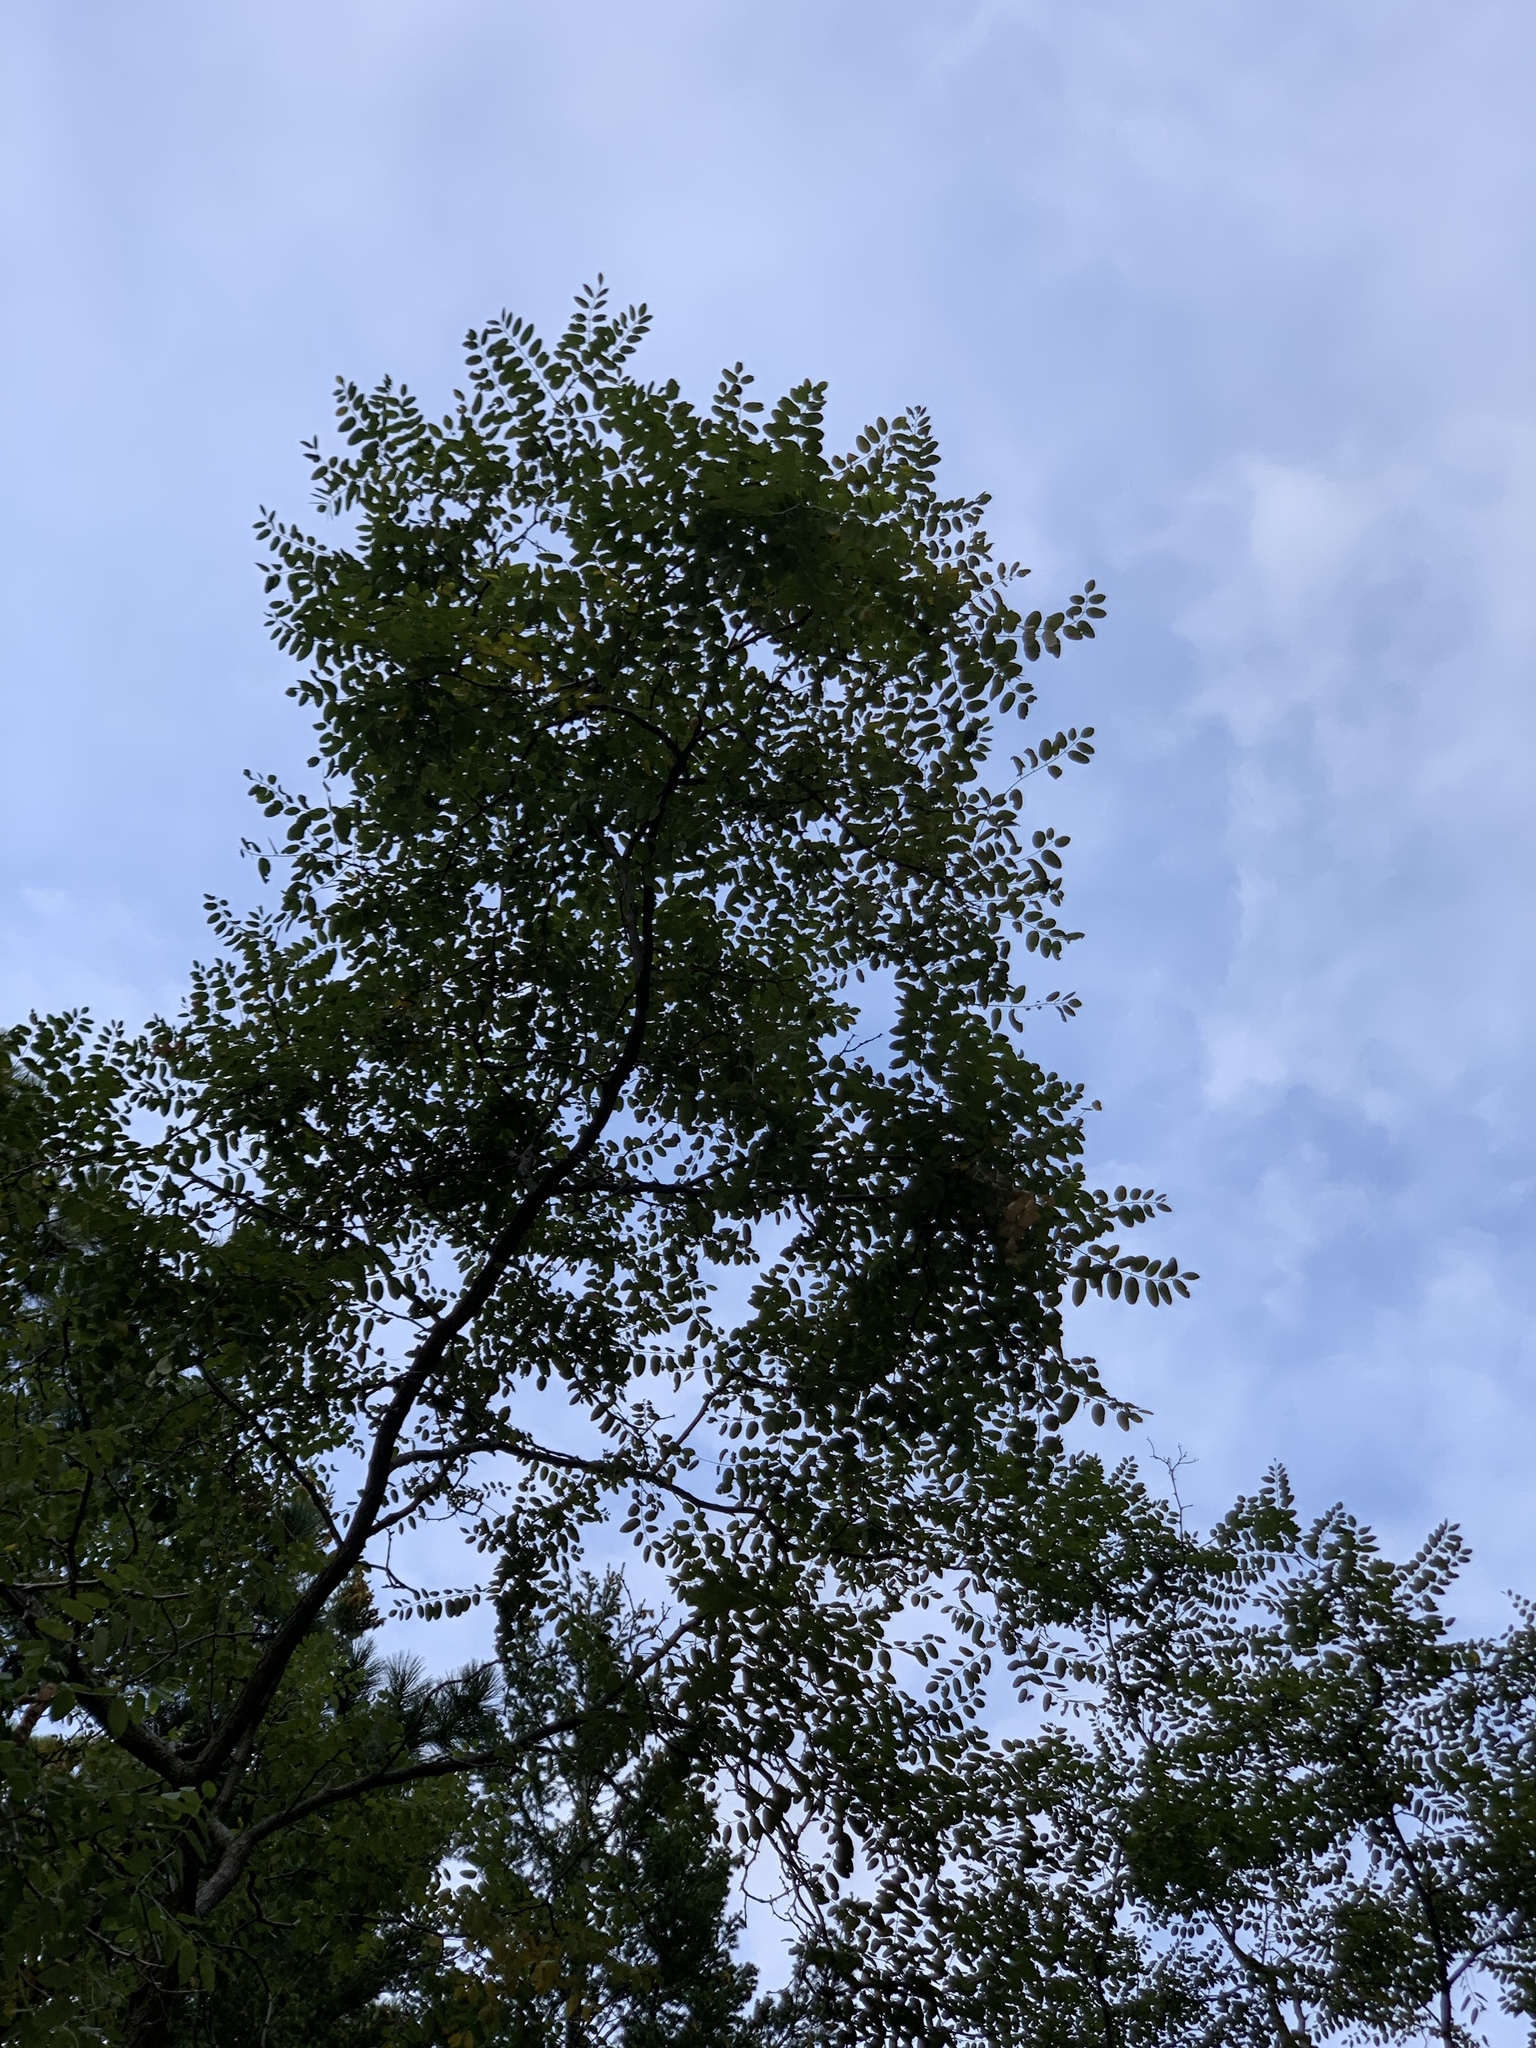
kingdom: Plantae
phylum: Tracheophyta
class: Magnoliopsida
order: Fabales
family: Fabaceae
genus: Robinia
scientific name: Robinia neomexicana
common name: New mexico locust
